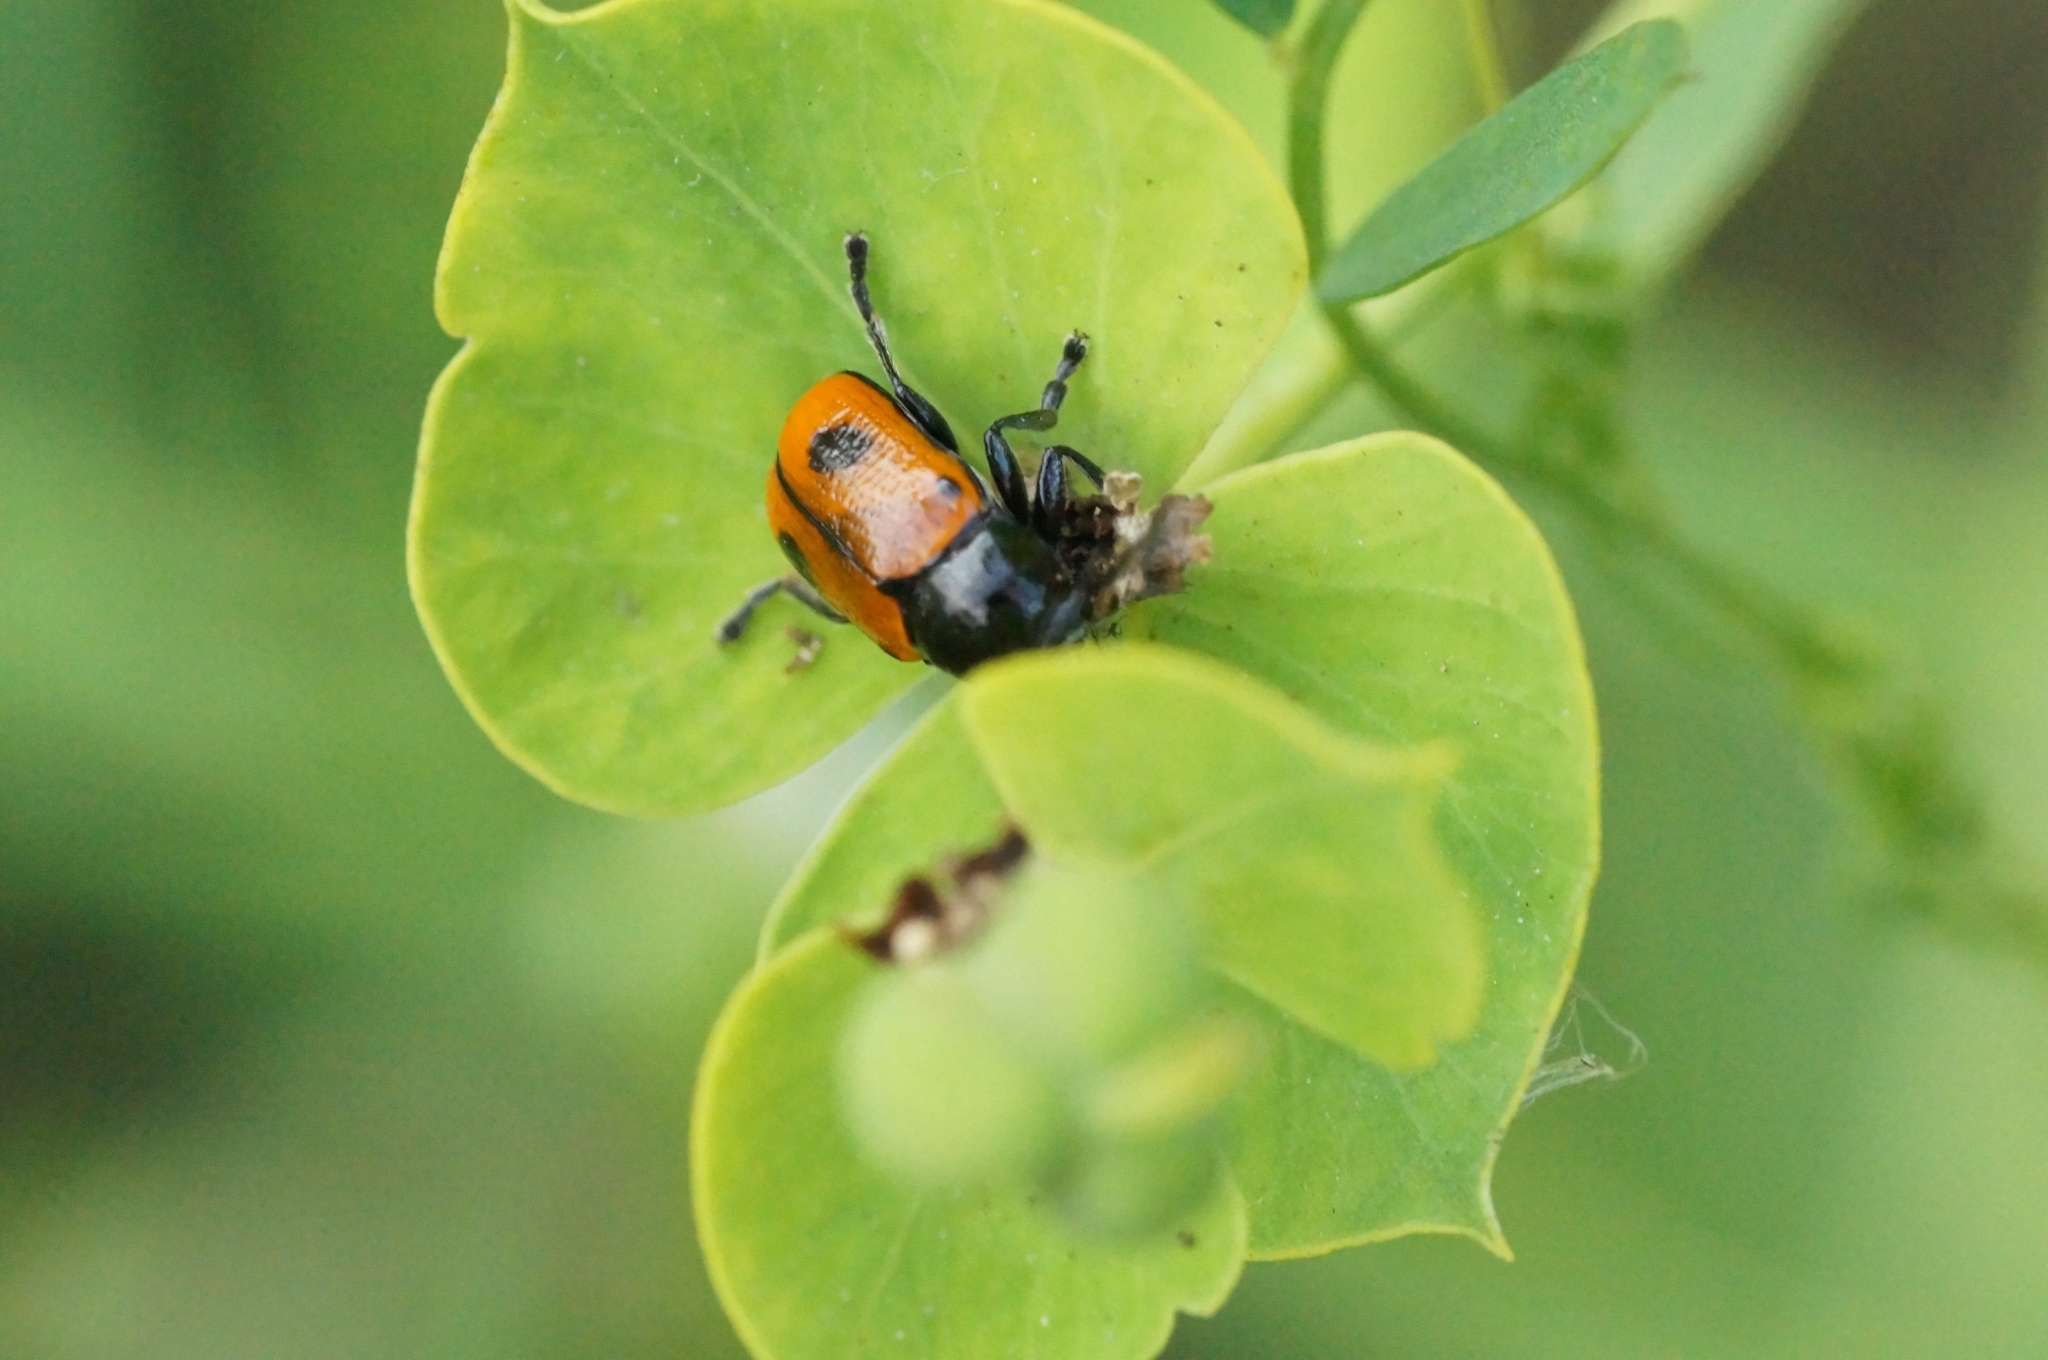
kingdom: Animalia
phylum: Arthropoda
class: Insecta
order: Coleoptera
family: Chrysomelidae
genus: Chiridopsis
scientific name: Chiridopsis bipunctata
